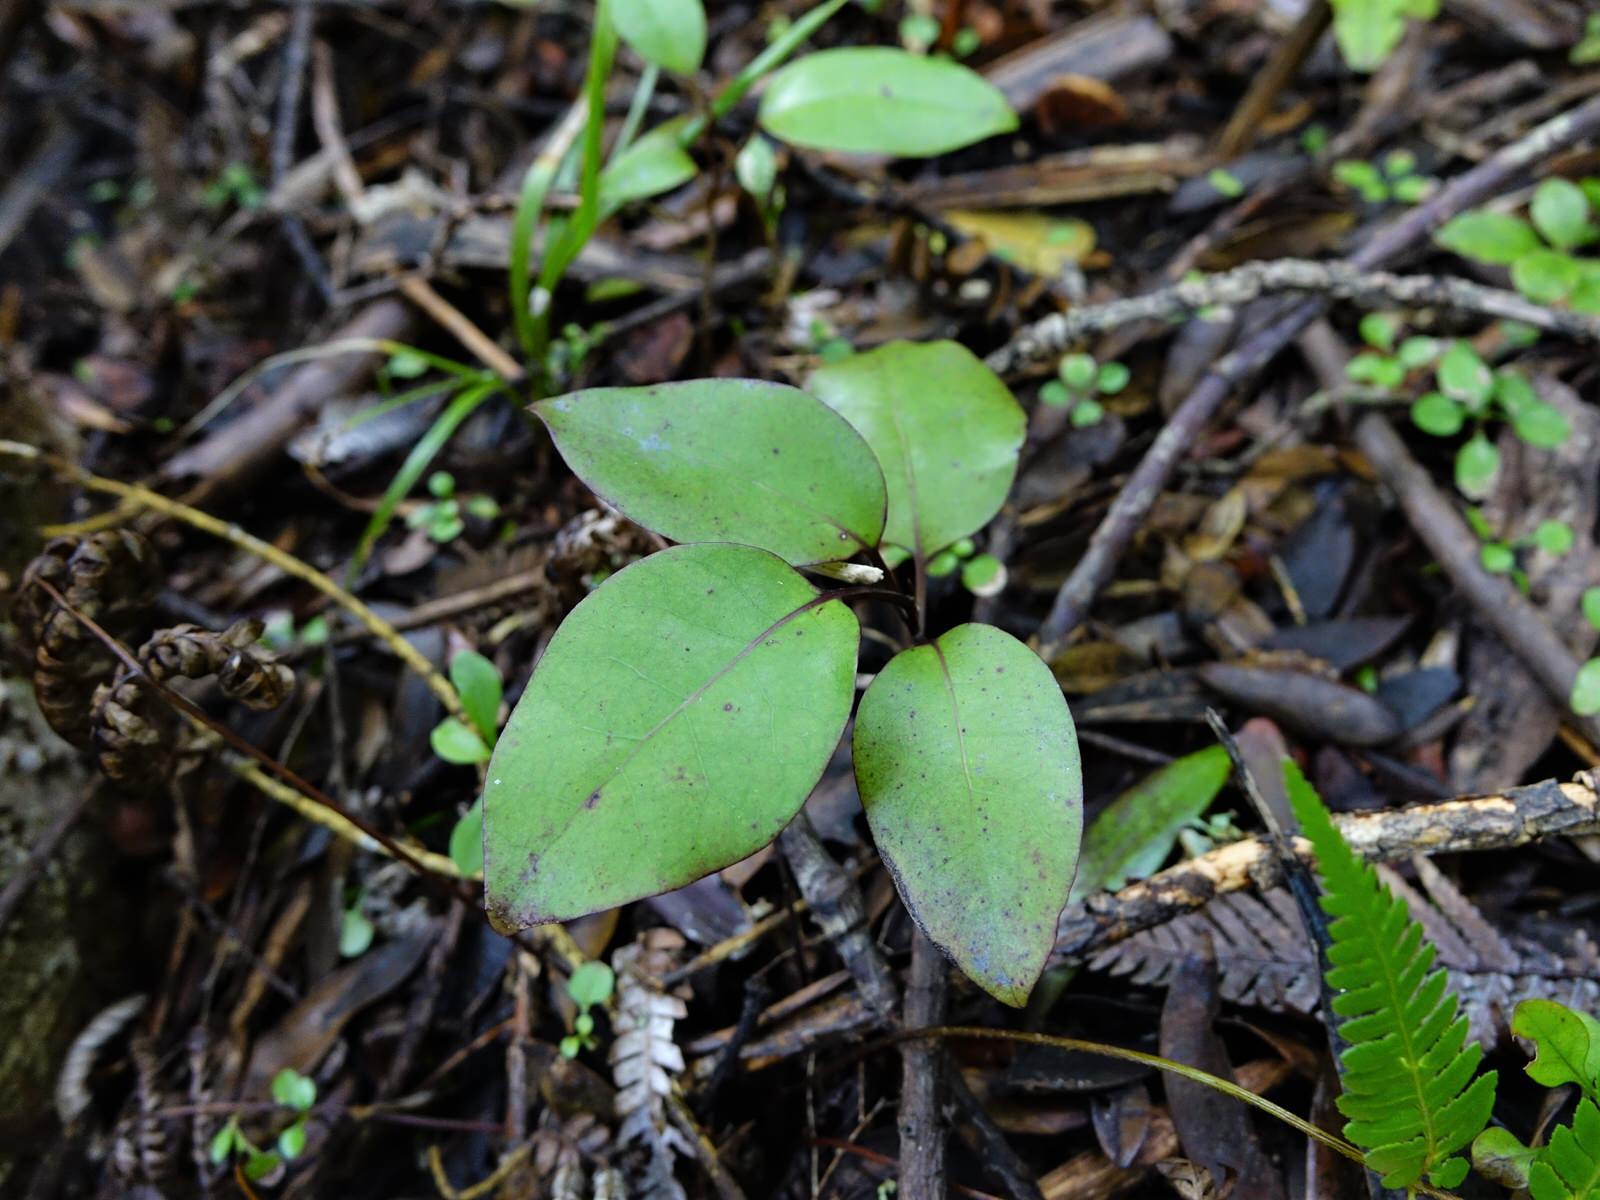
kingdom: Plantae
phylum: Tracheophyta
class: Magnoliopsida
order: Laurales
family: Lauraceae
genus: Litsea
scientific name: Litsea calicaris
